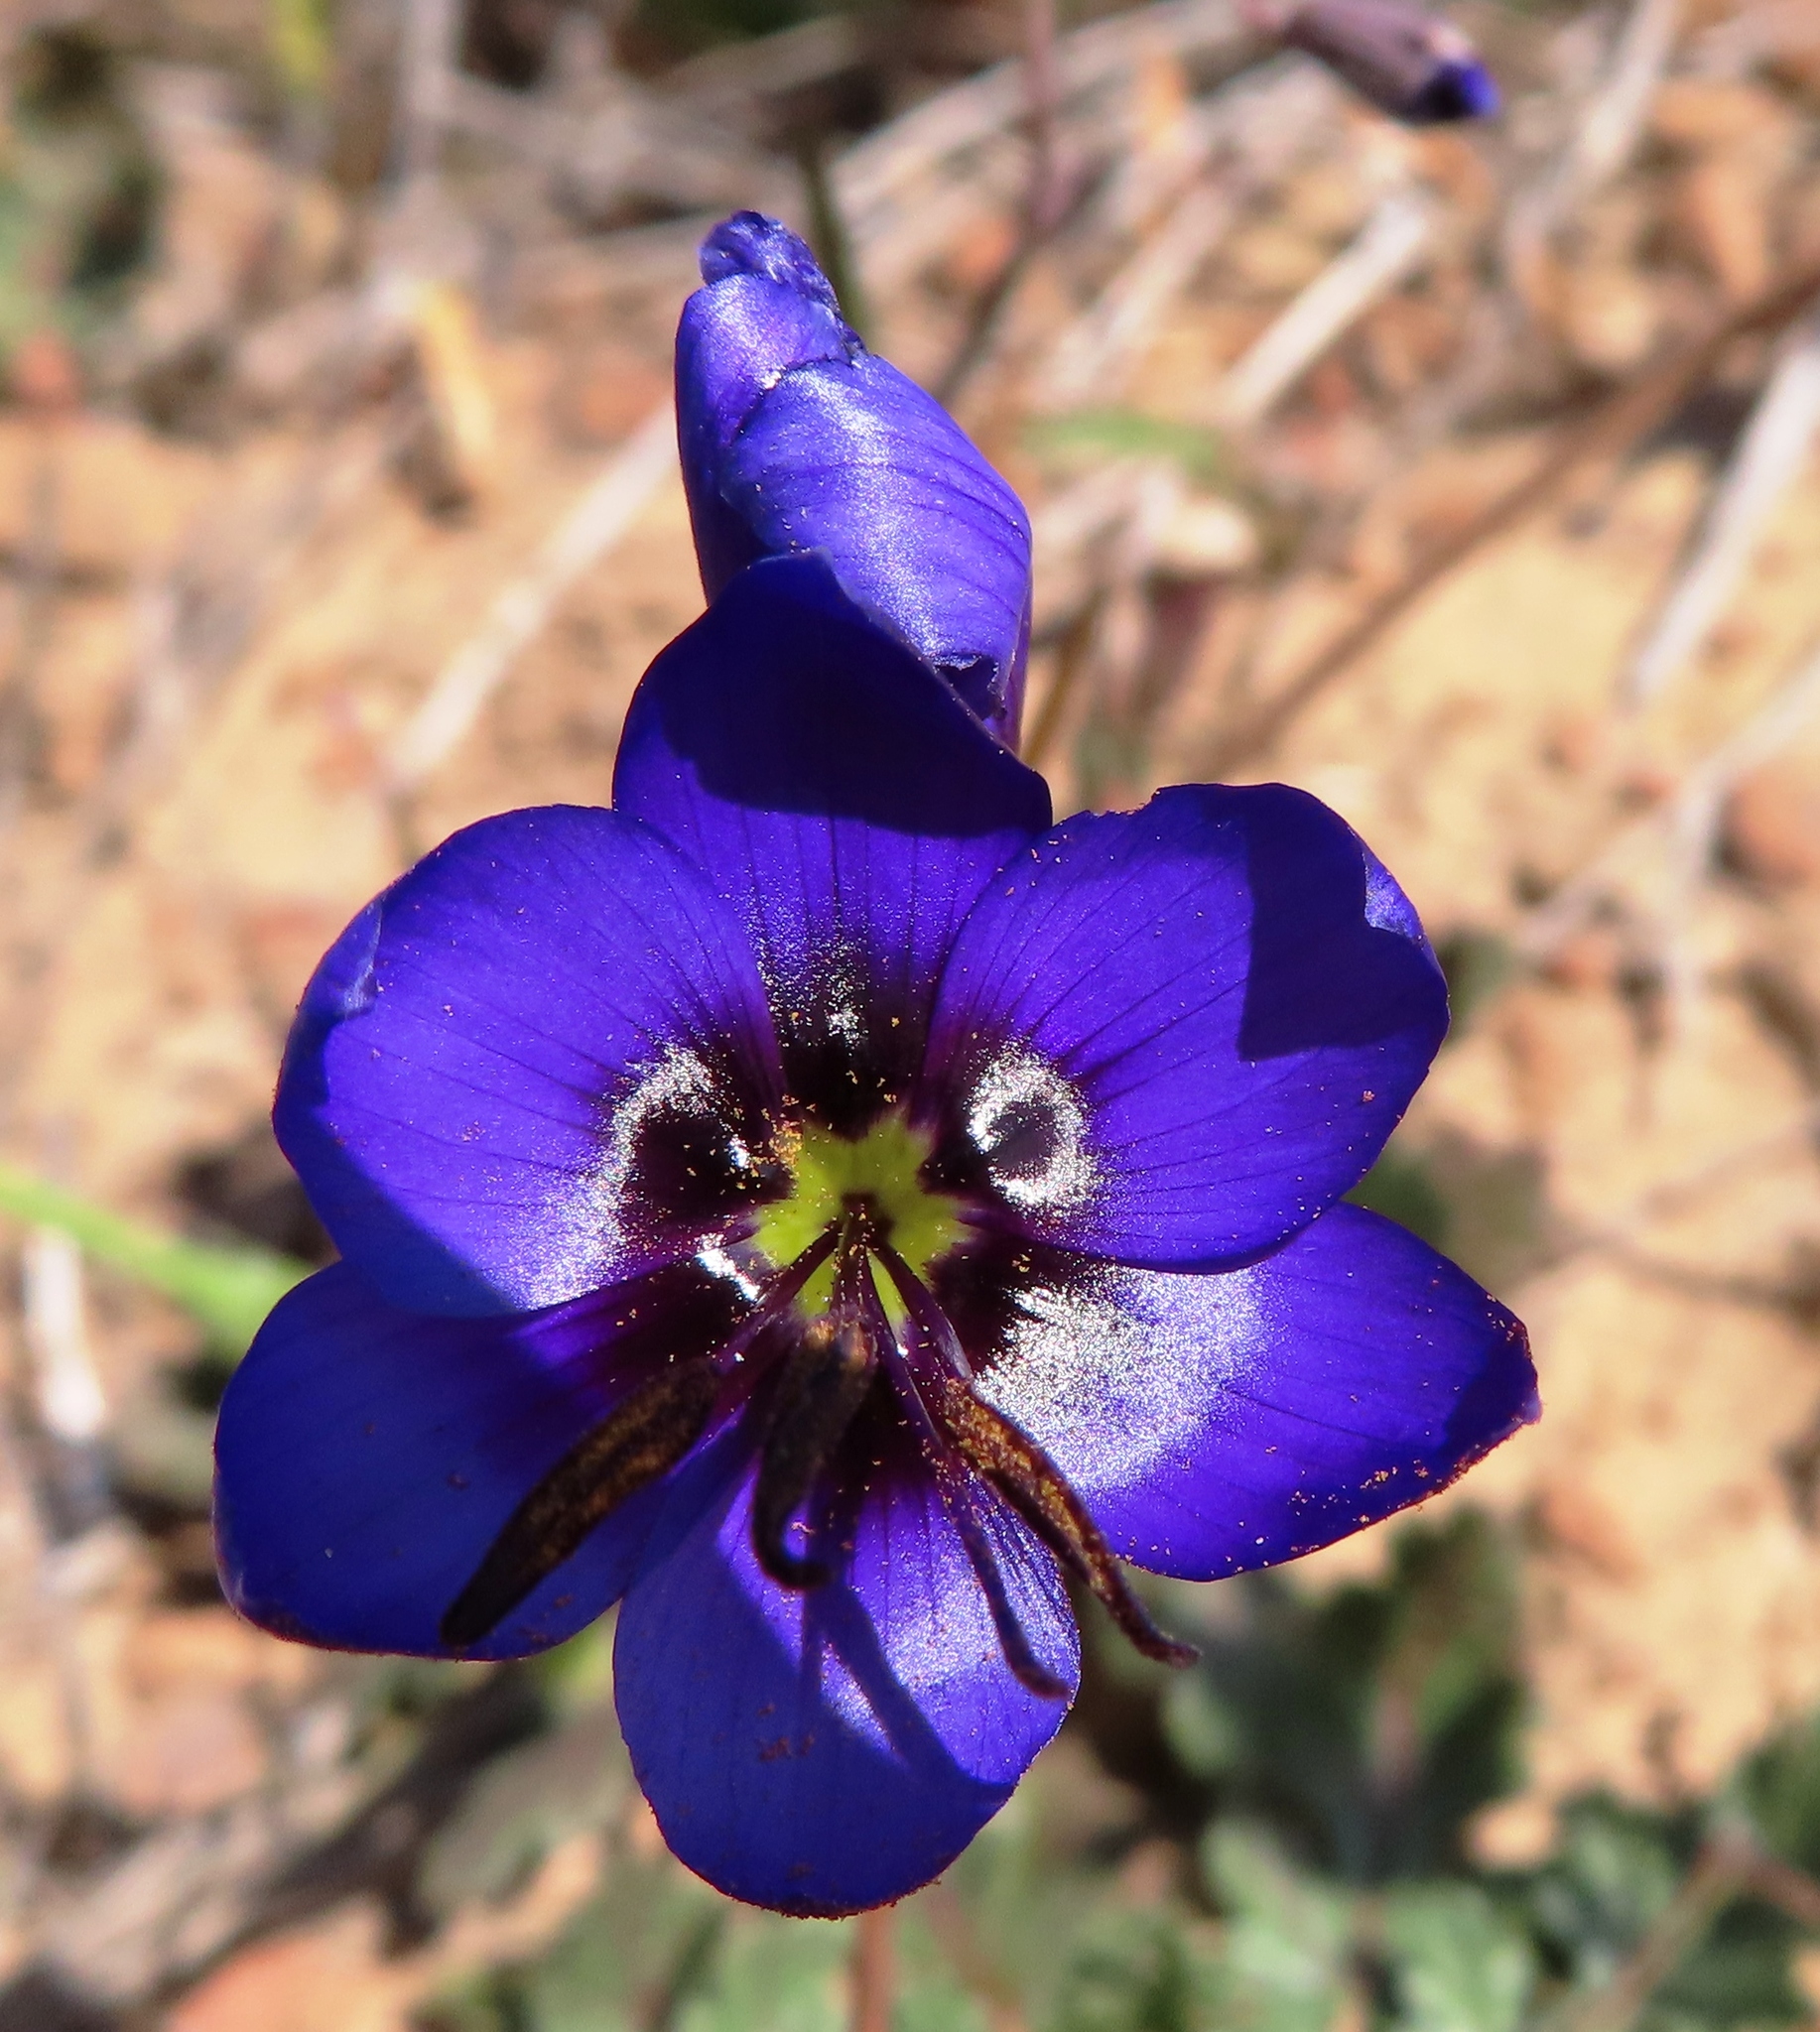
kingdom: Plantae
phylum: Tracheophyta
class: Liliopsida
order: Asparagales
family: Iridaceae
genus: Geissorhiza
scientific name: Geissorhiza splendidissima
